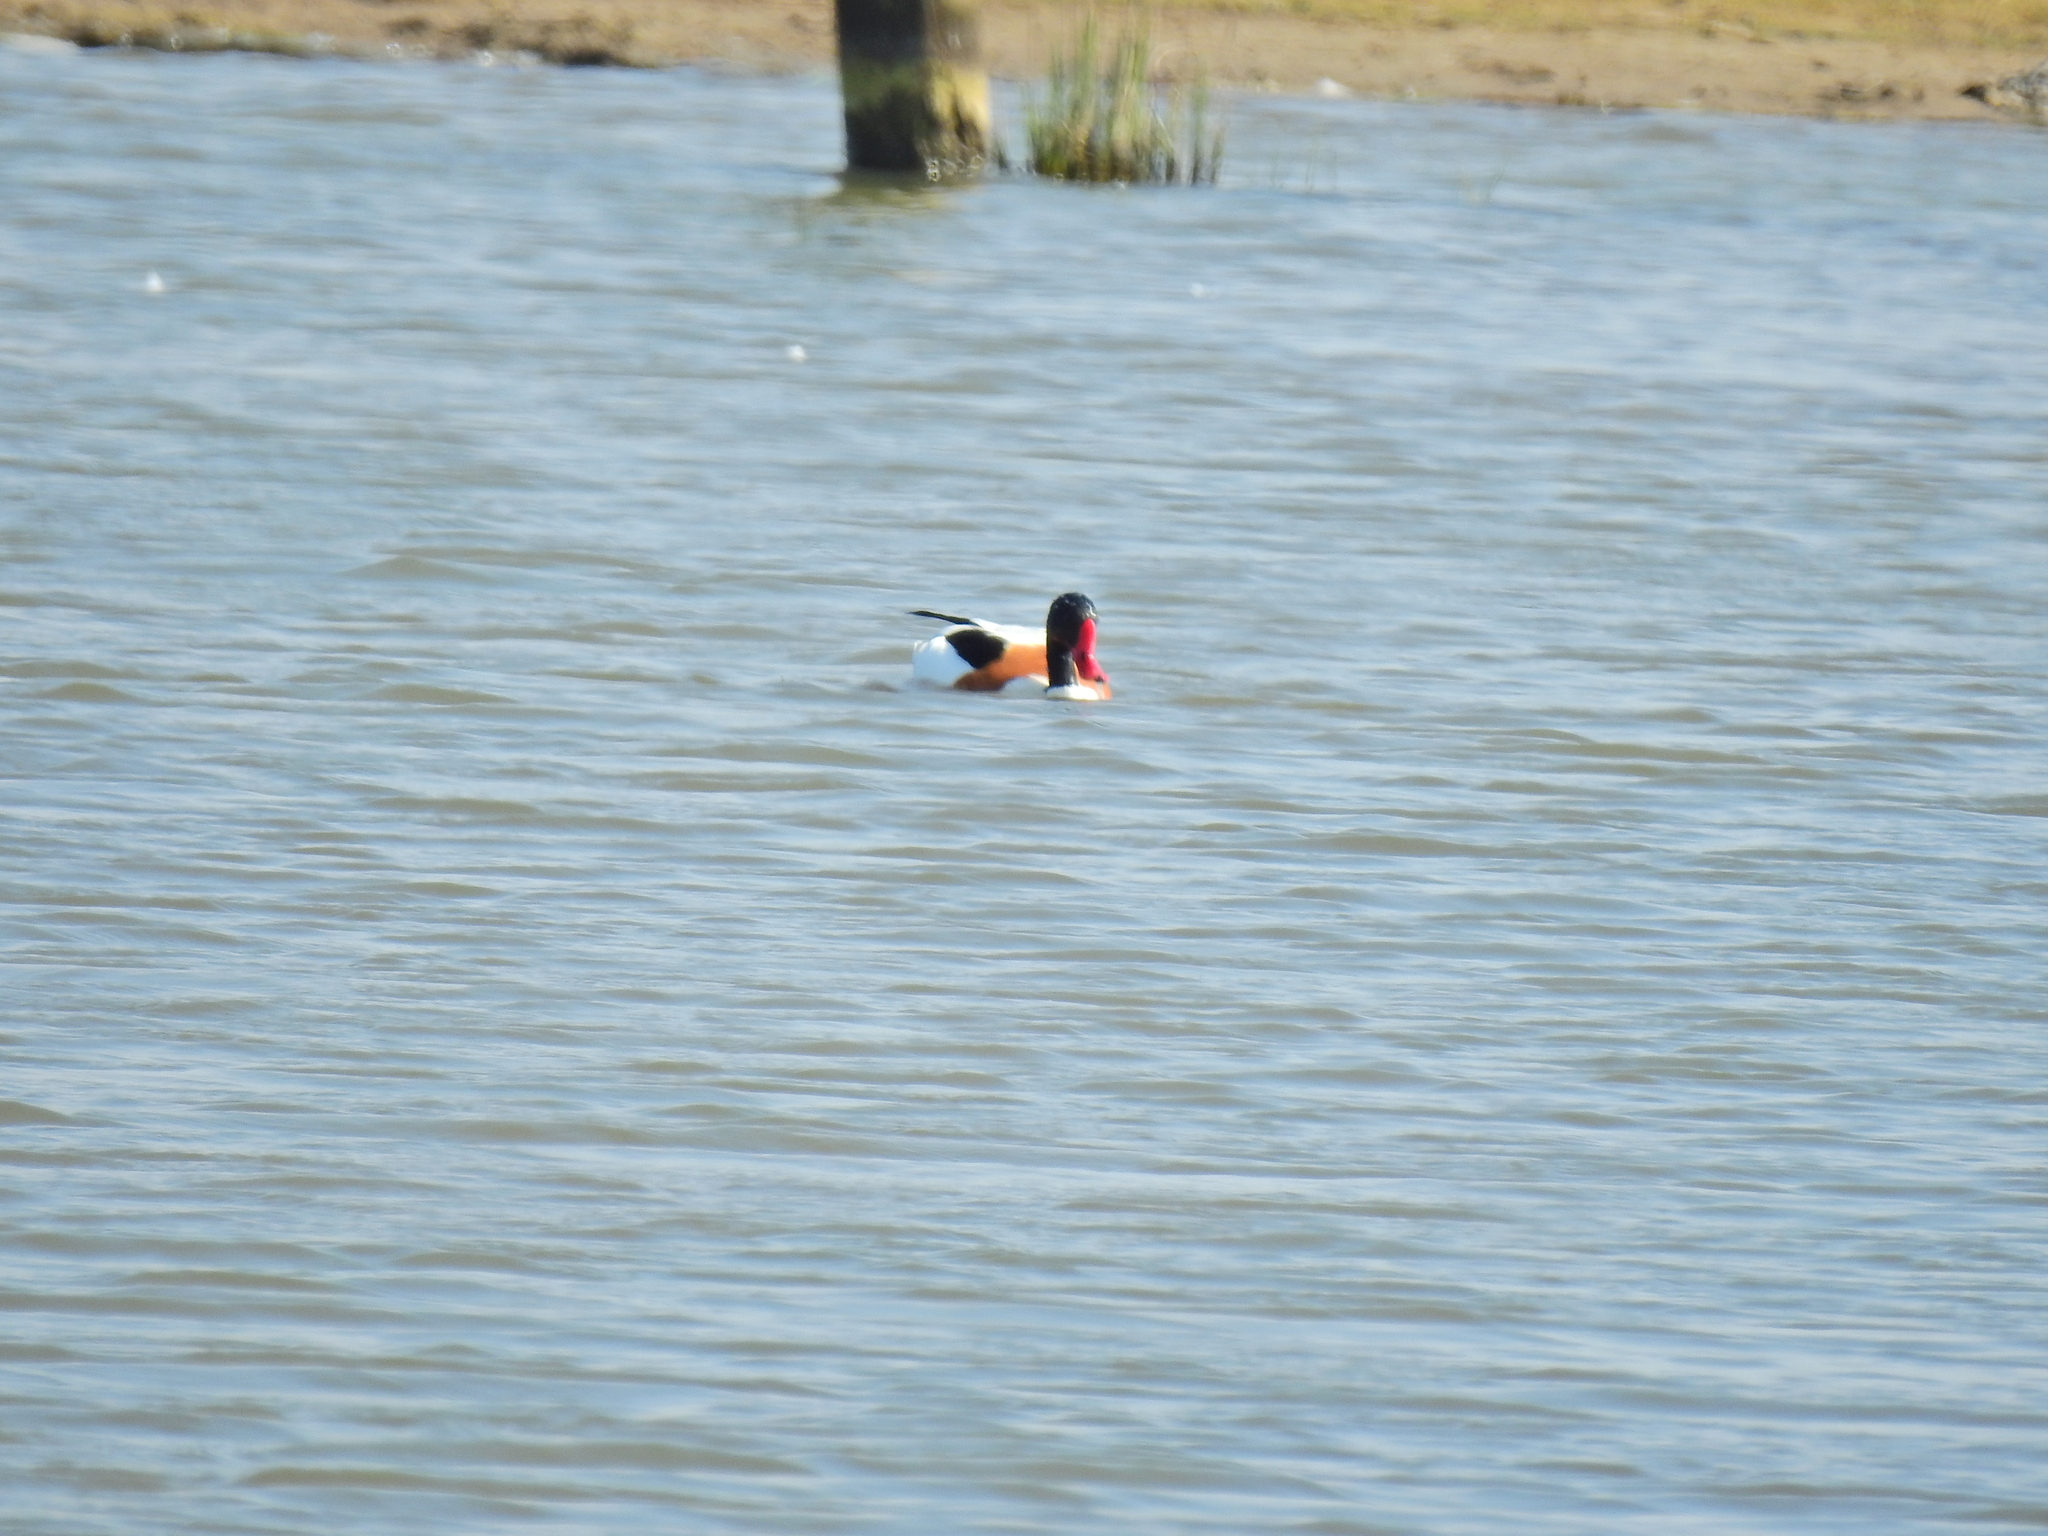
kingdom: Animalia
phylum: Chordata
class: Aves
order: Anseriformes
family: Anatidae
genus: Tadorna
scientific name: Tadorna tadorna
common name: Common shelduck
